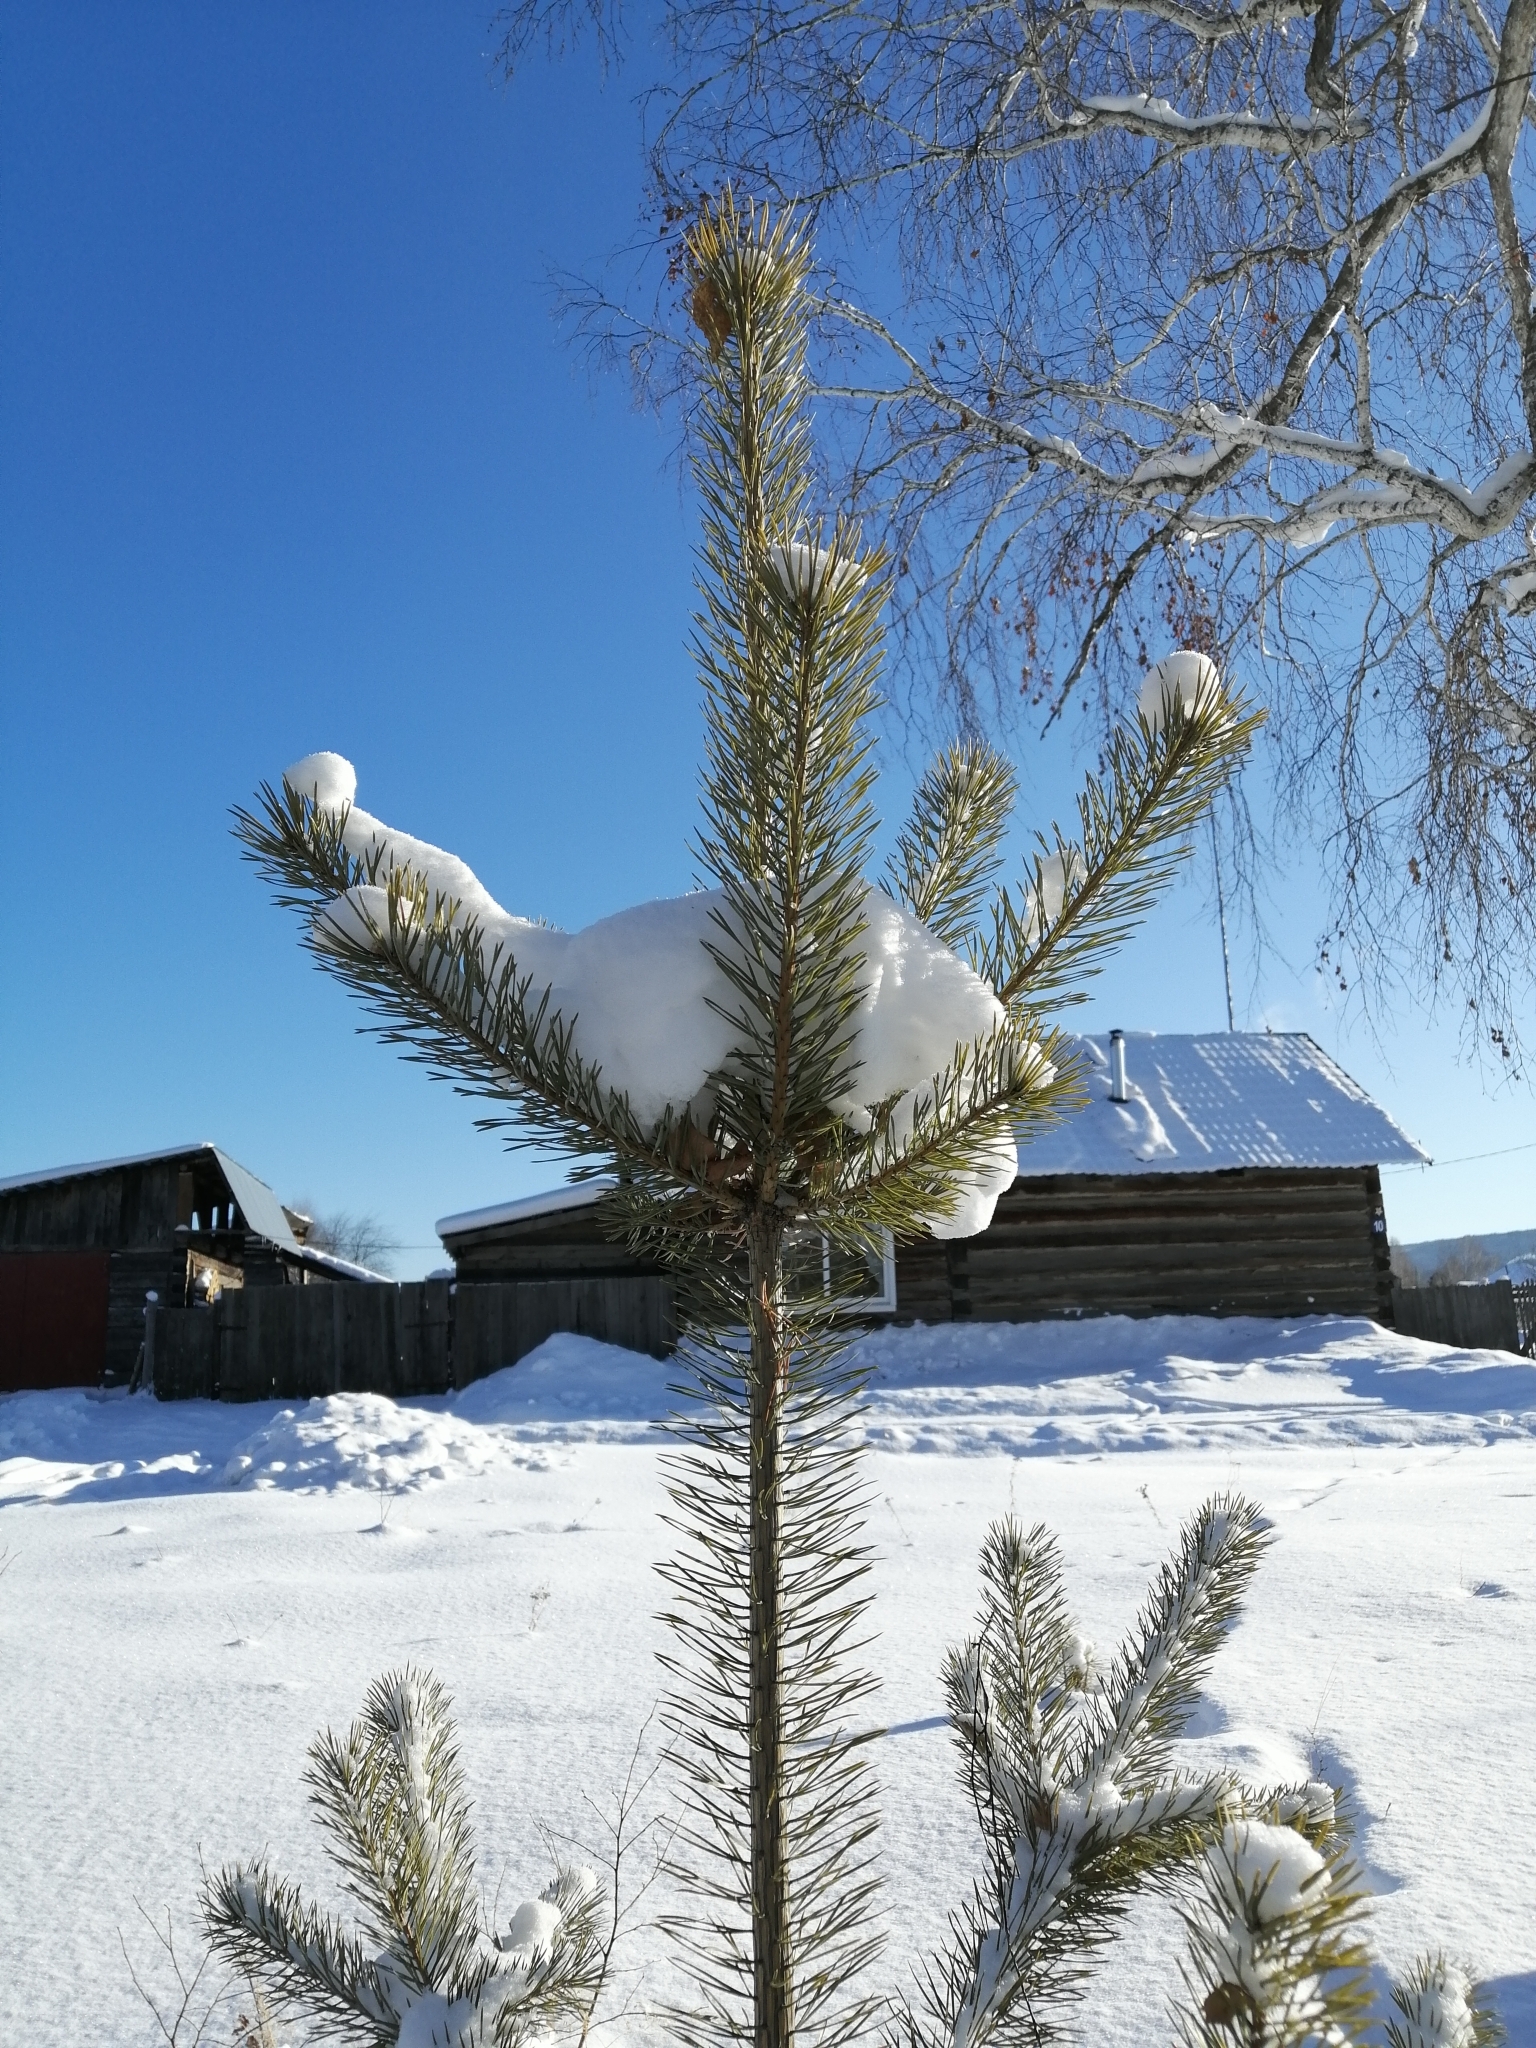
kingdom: Plantae
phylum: Tracheophyta
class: Pinopsida
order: Pinales
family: Pinaceae
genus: Pinus
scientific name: Pinus sylvestris
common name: Scots pine
